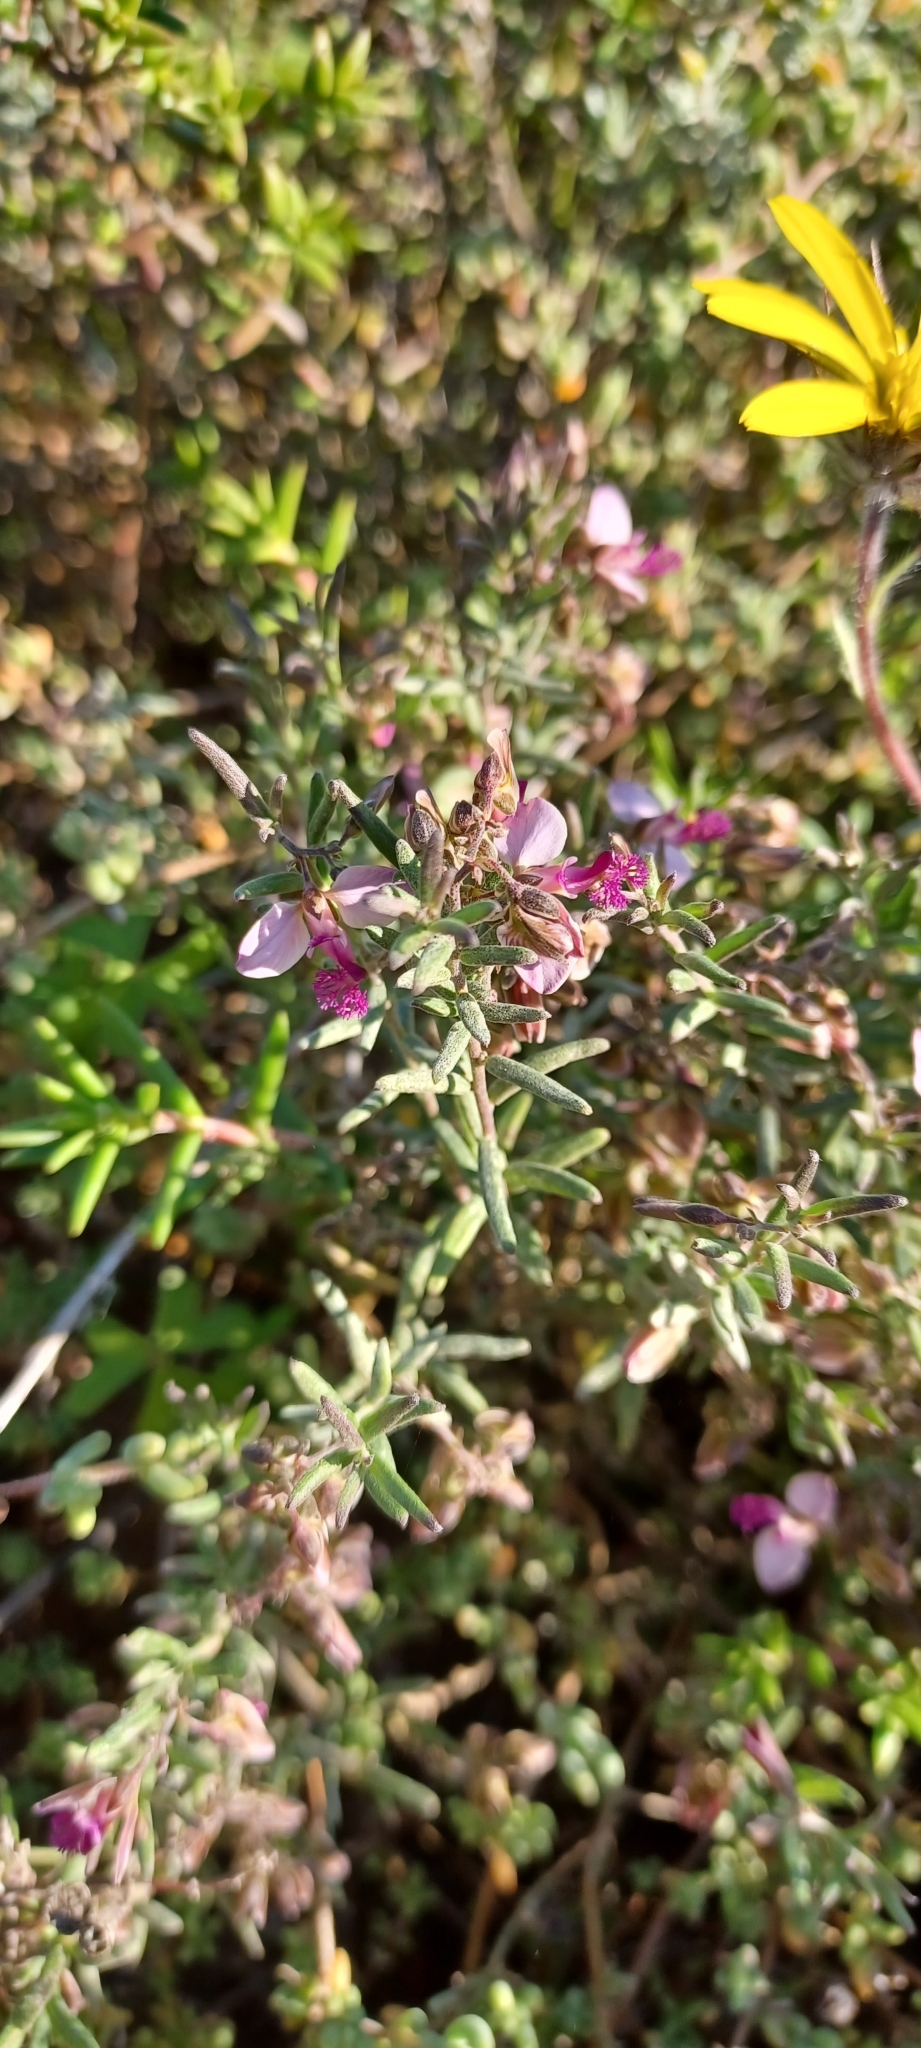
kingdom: Plantae
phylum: Tracheophyta
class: Magnoliopsida
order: Fabales
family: Polygalaceae
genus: Polygala
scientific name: Polygala scabra
